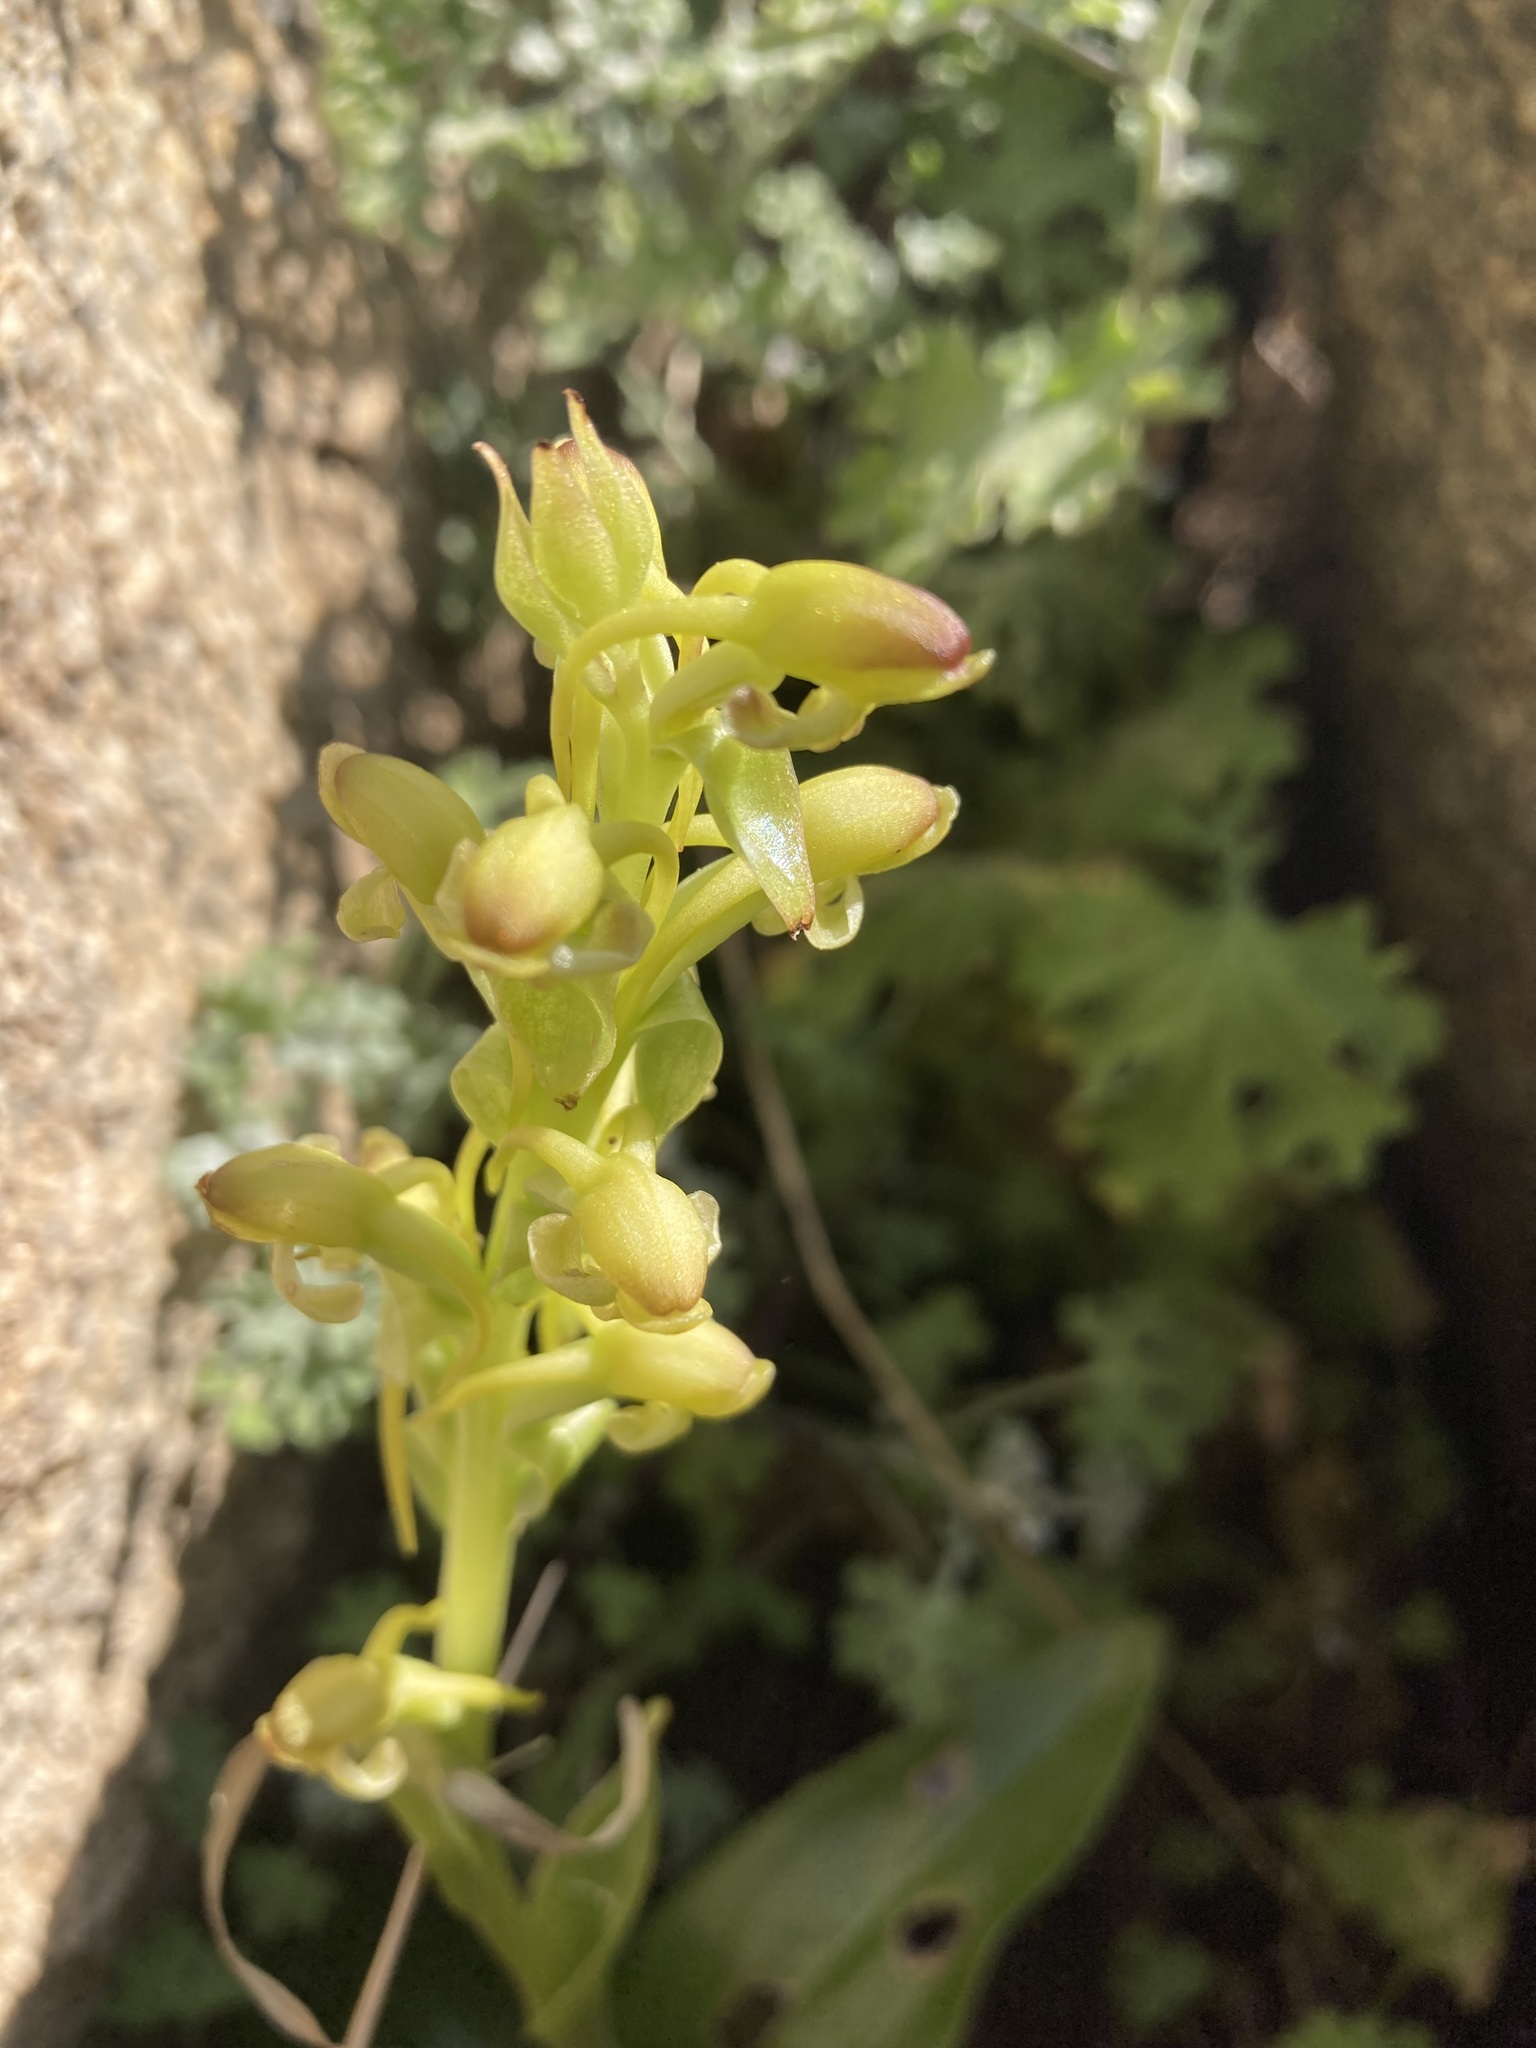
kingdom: Plantae
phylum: Tracheophyta
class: Liliopsida
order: Asparagales
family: Orchidaceae
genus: Satyrium
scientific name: Satyrium odorum
